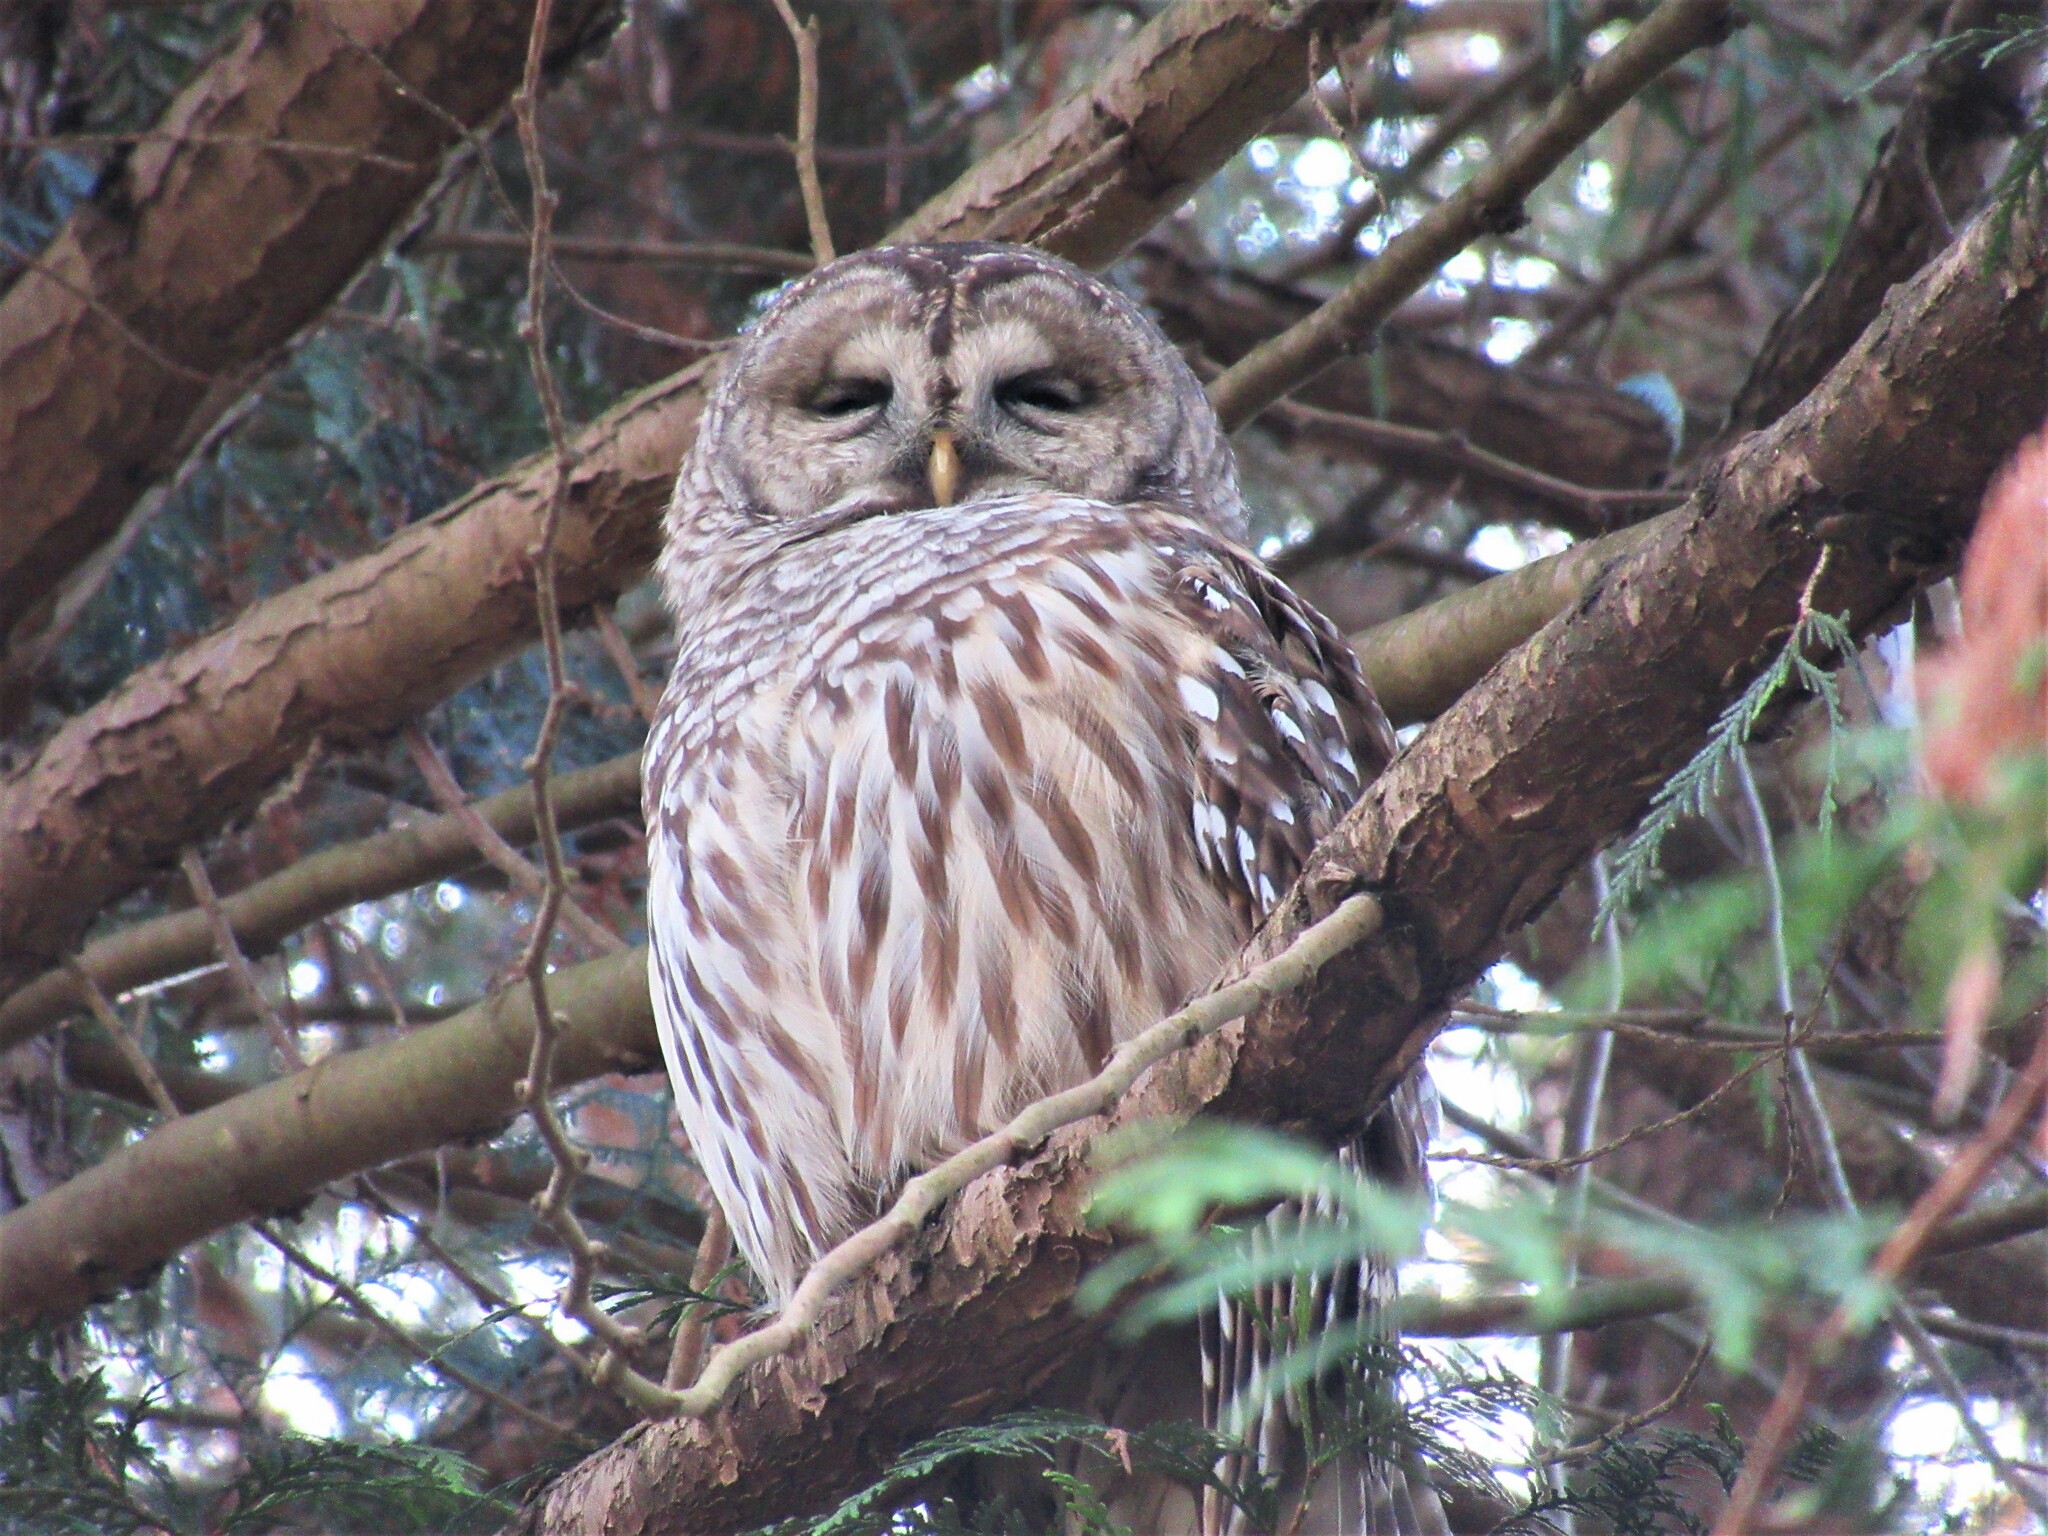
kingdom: Animalia
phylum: Chordata
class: Aves
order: Strigiformes
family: Strigidae
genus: Strix
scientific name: Strix varia
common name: Barred owl
